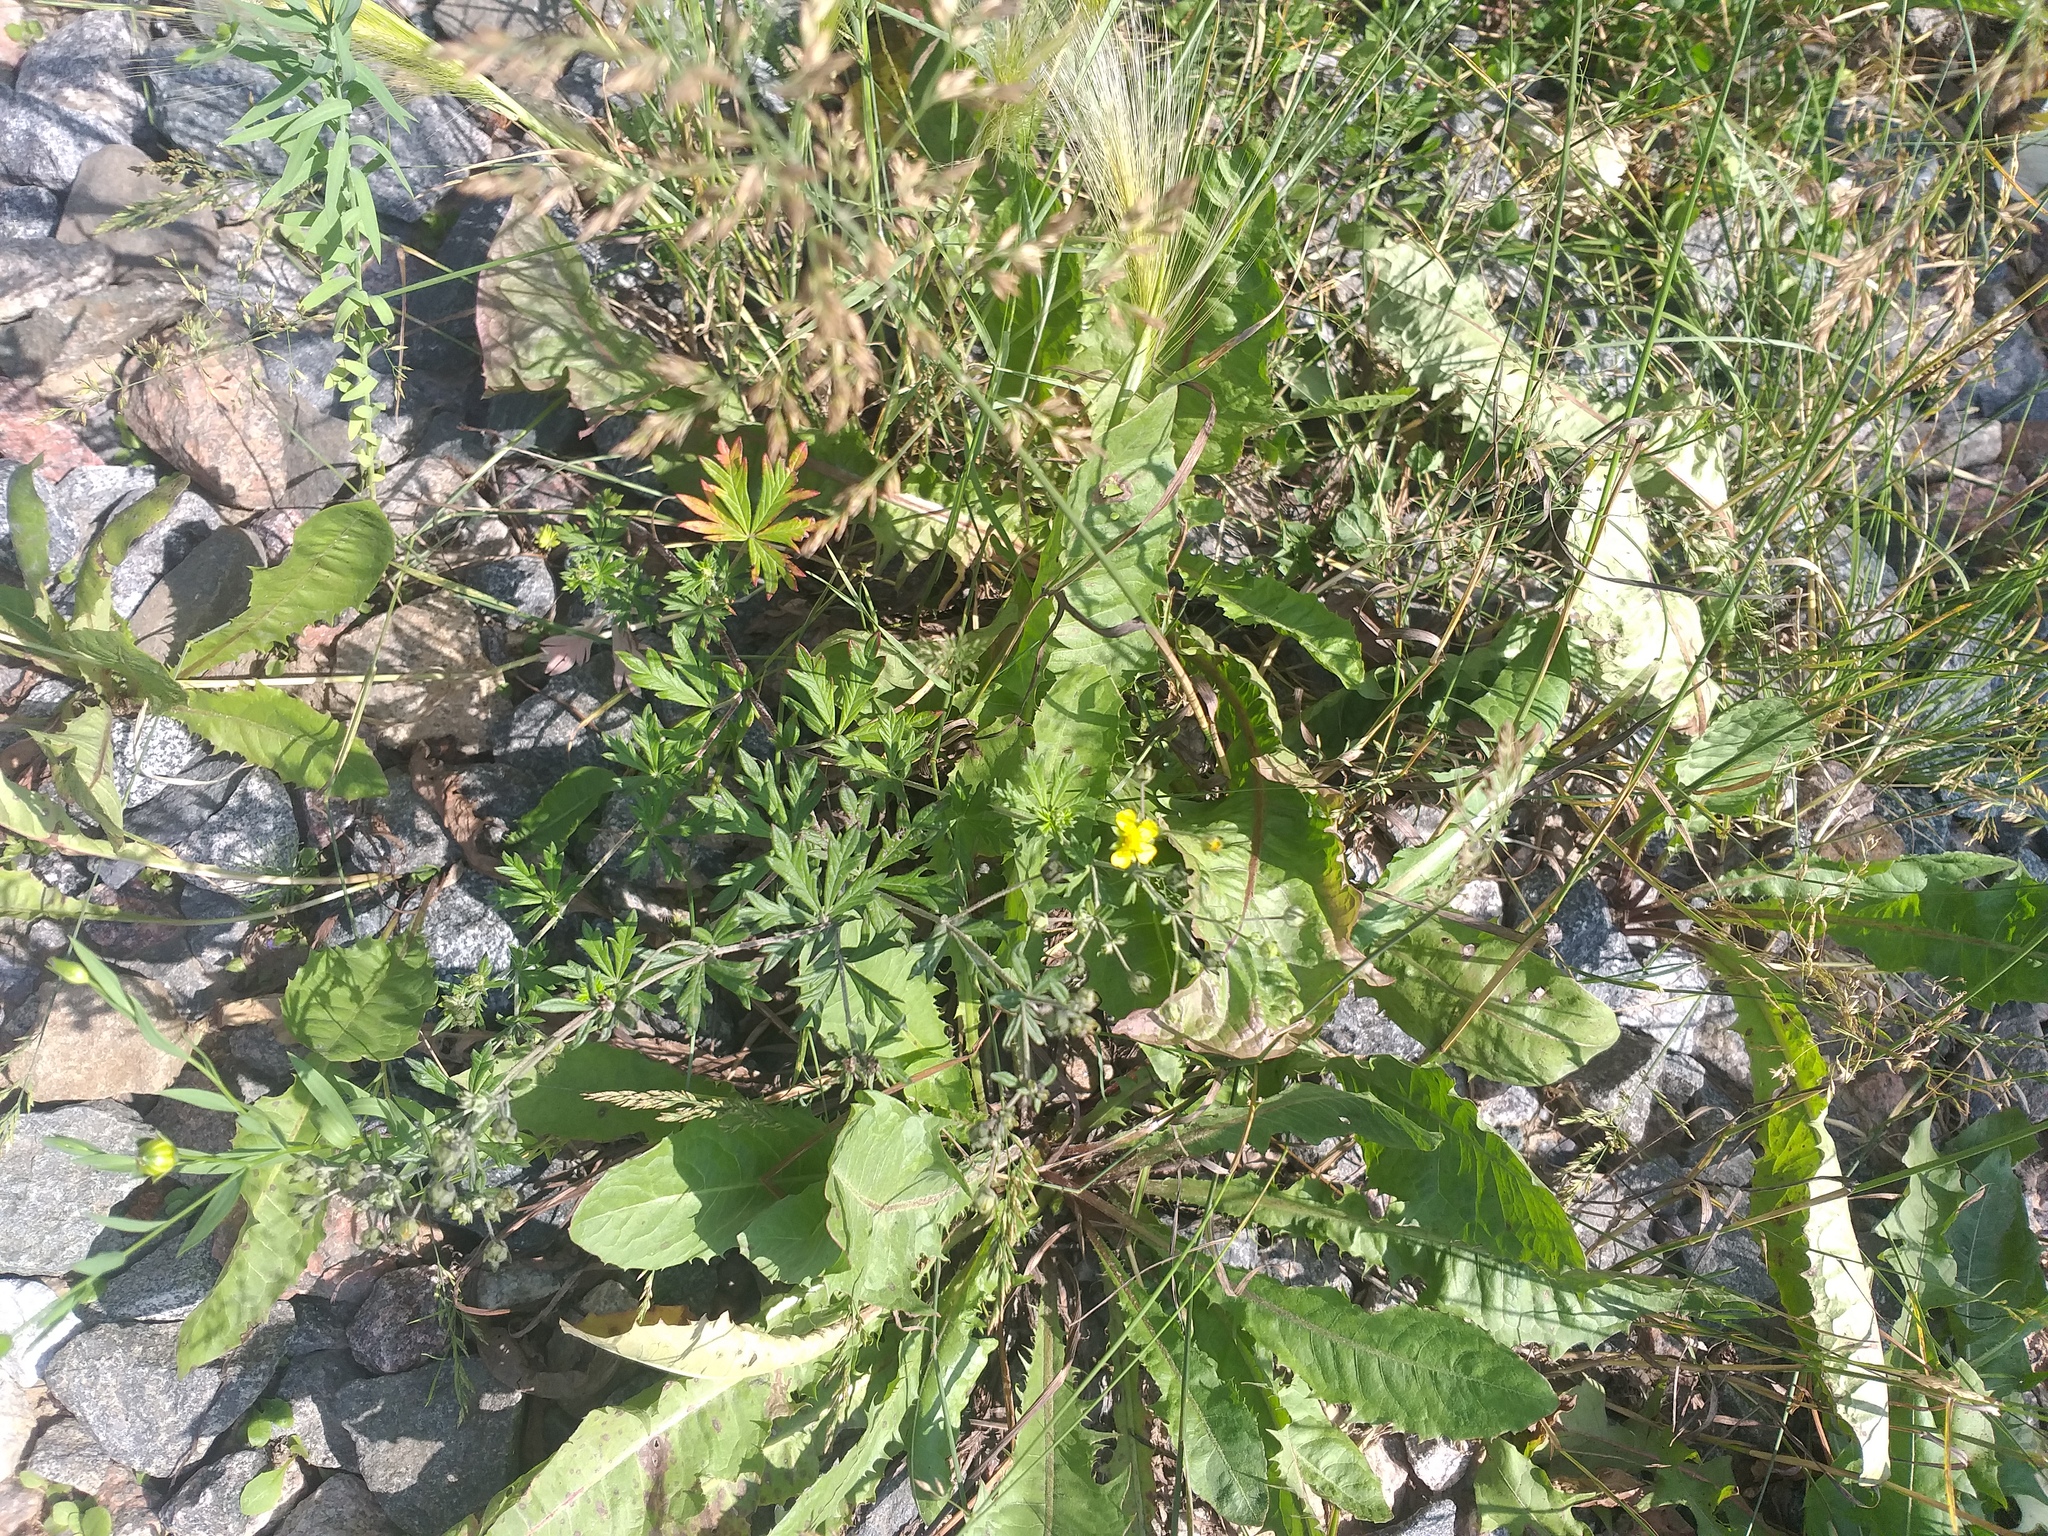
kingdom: Plantae
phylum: Tracheophyta
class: Magnoliopsida
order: Rosales
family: Rosaceae
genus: Potentilla
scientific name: Potentilla argentea
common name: Hoary cinquefoil
